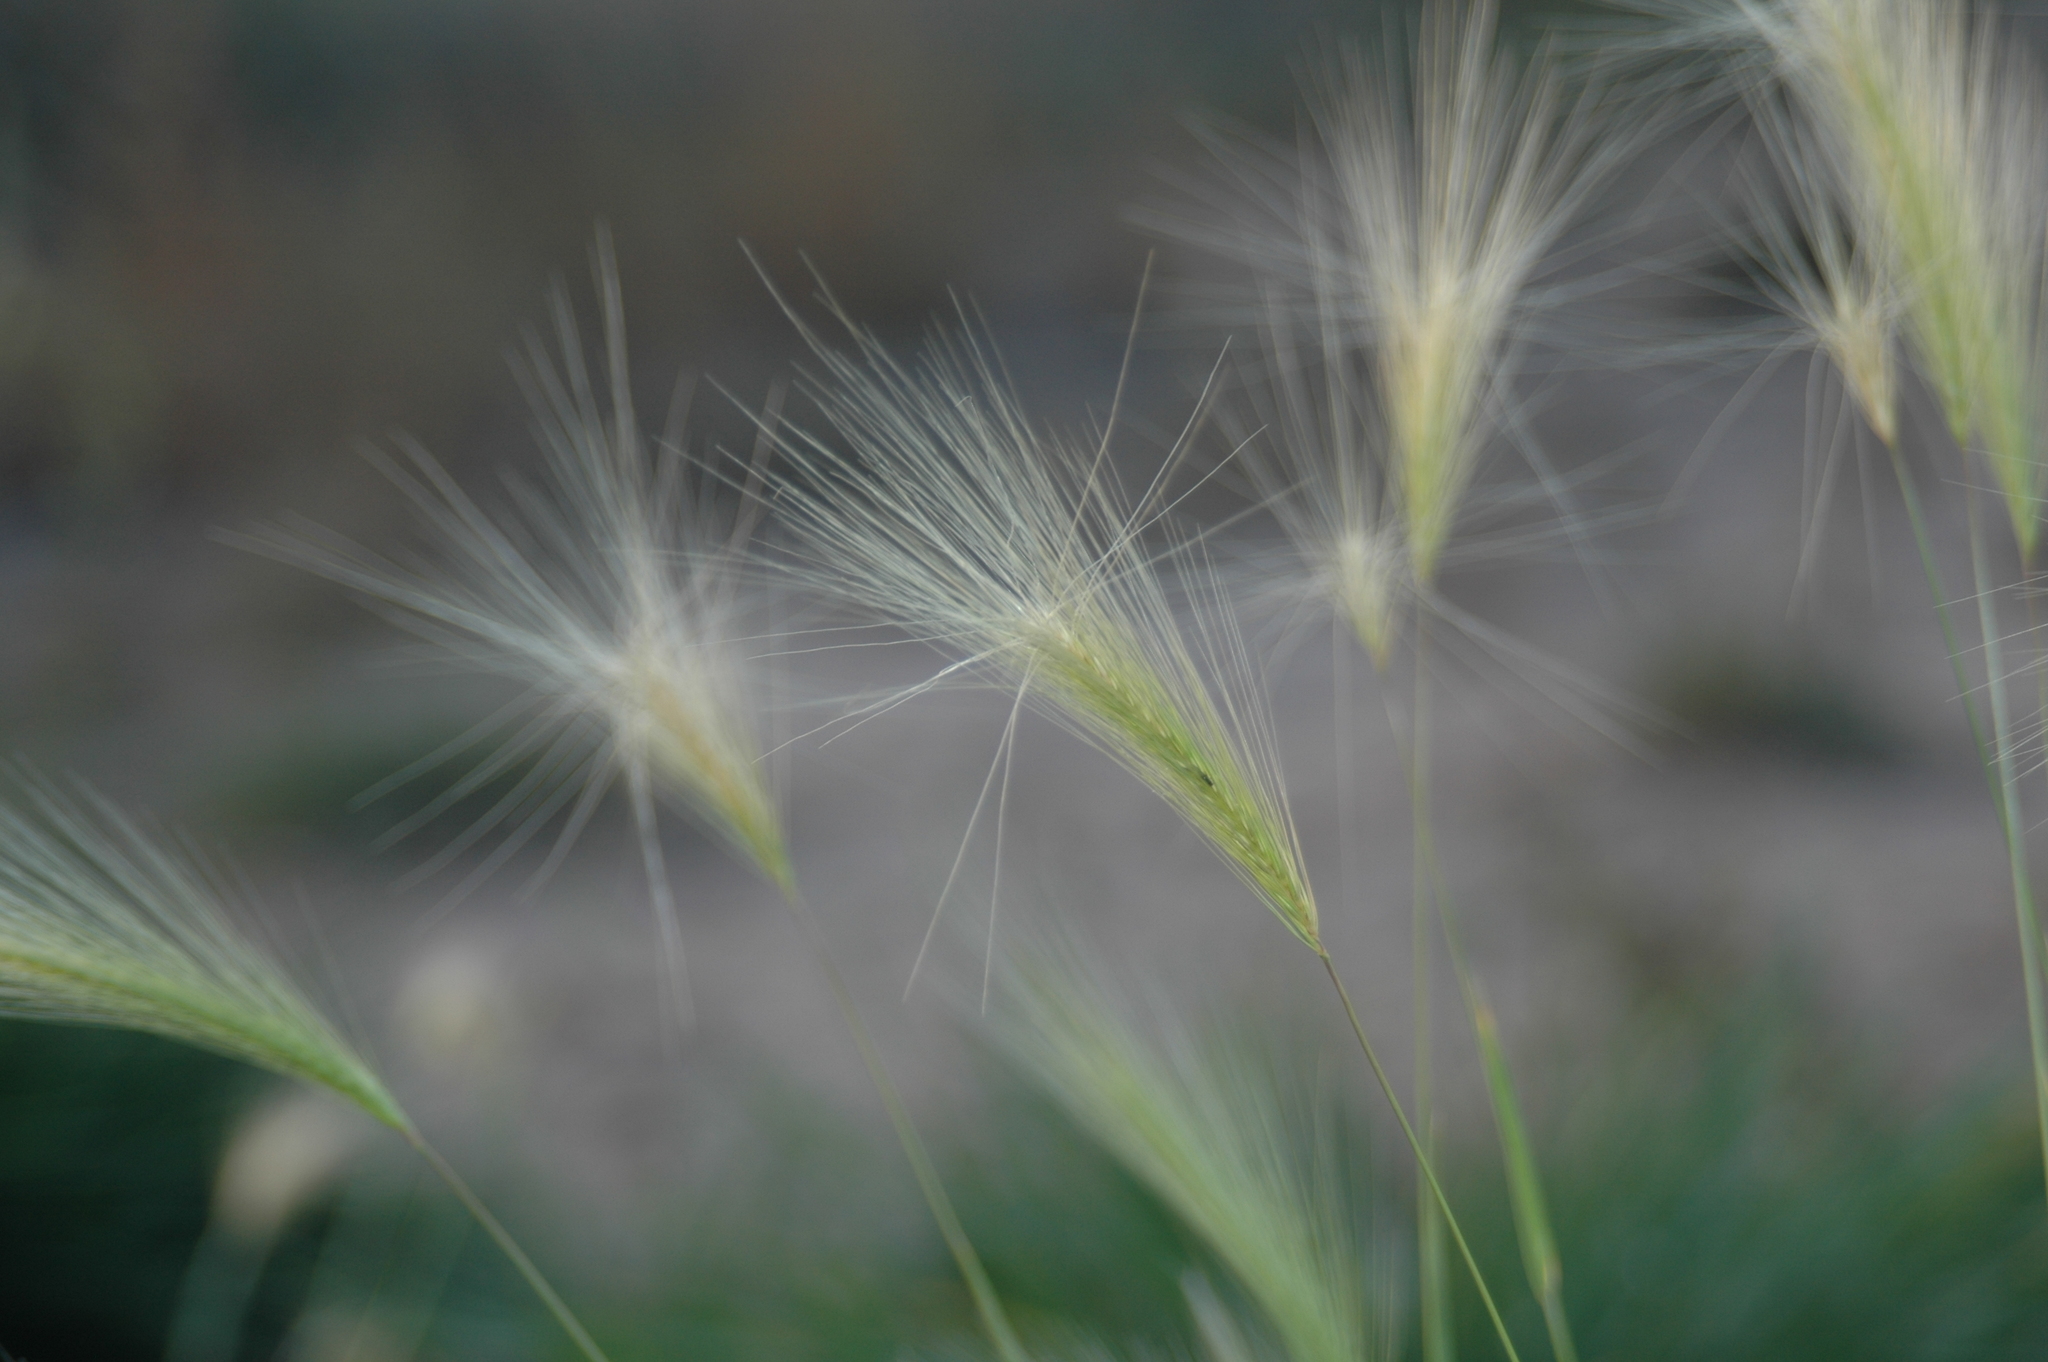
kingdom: Plantae
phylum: Tracheophyta
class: Liliopsida
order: Poales
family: Poaceae
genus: Hordeum
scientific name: Hordeum jubatum
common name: Foxtail barley
